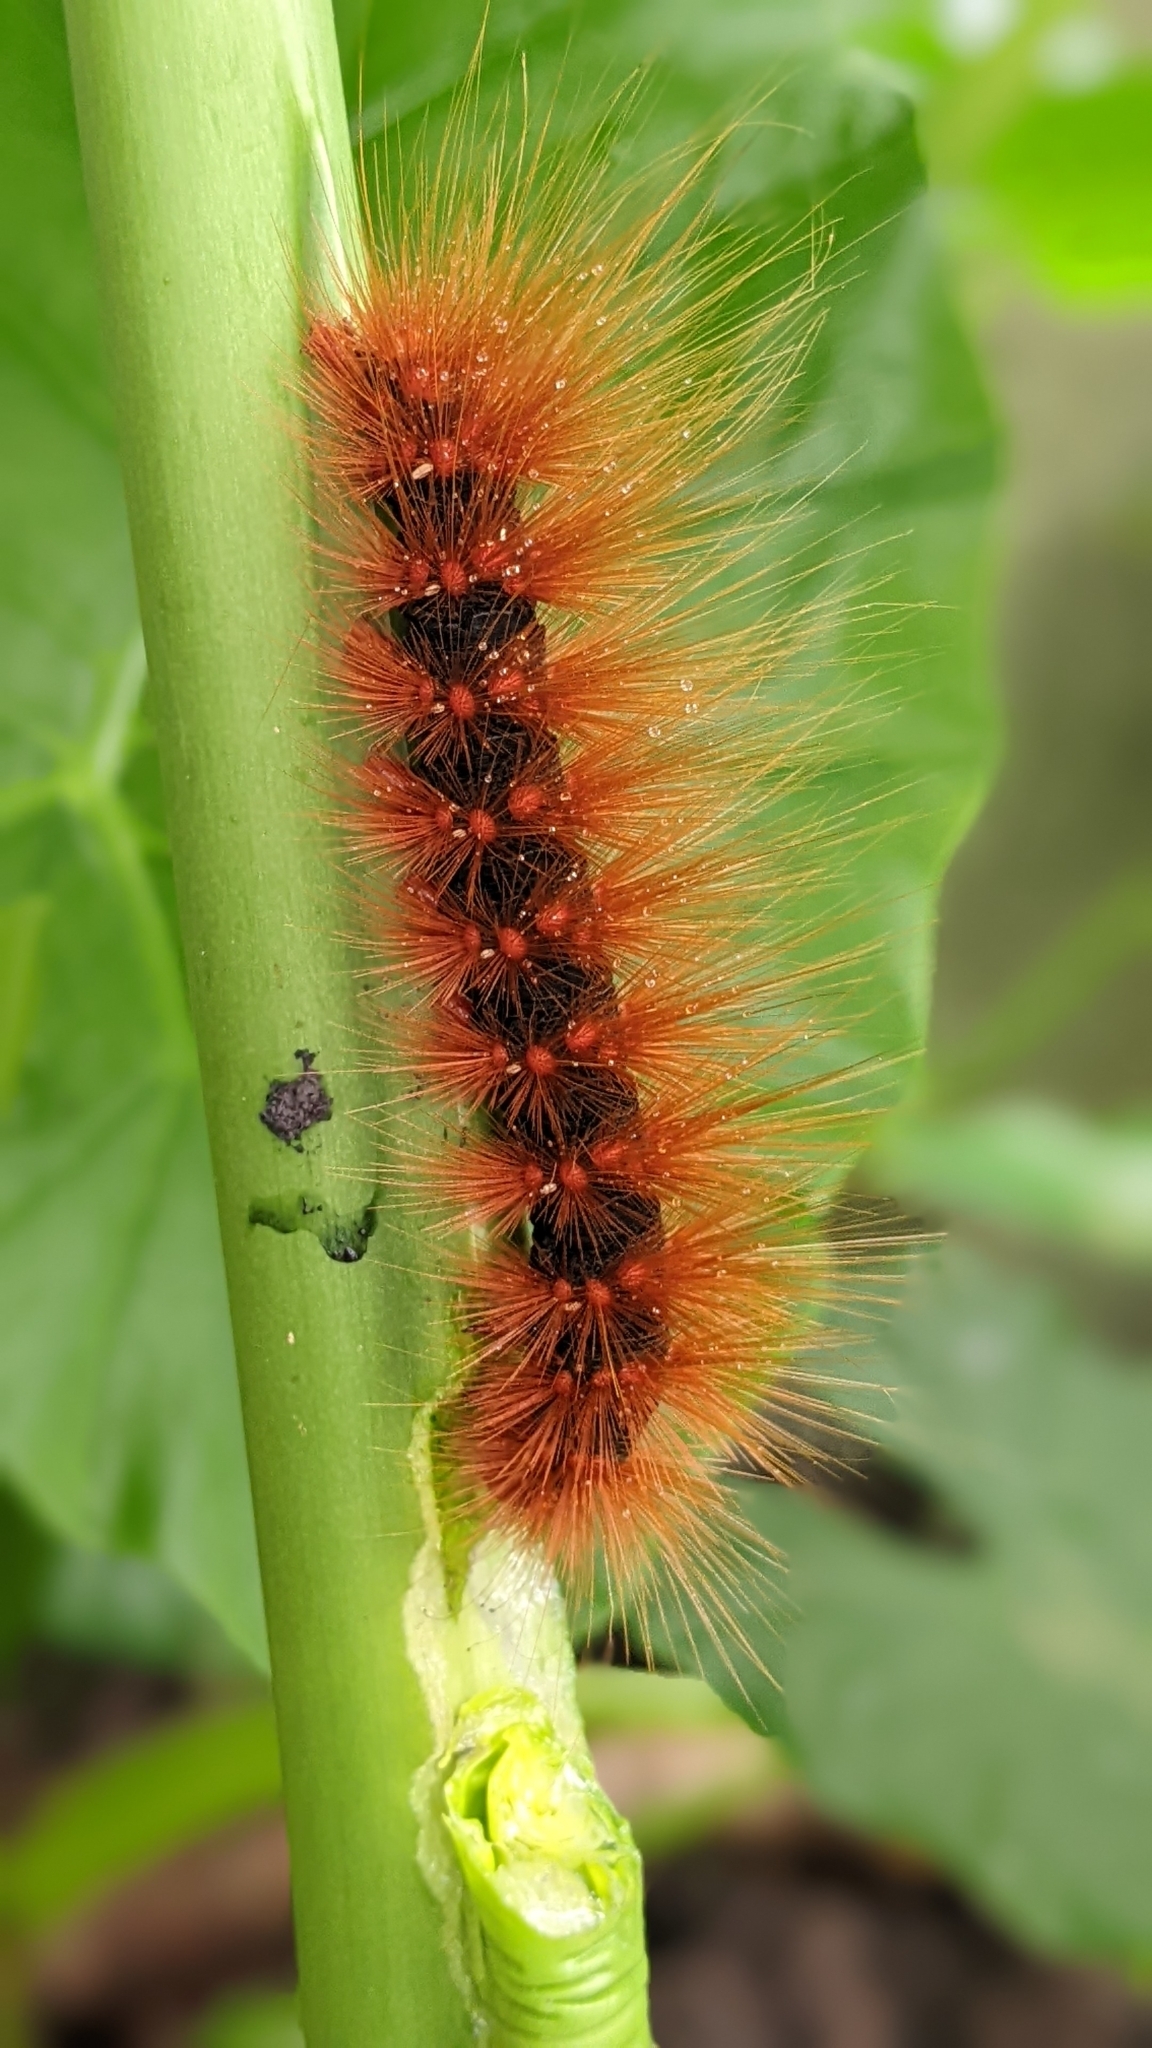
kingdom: Animalia
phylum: Arthropoda
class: Insecta
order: Lepidoptera
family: Erebidae
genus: Areas
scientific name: Areas galactina
